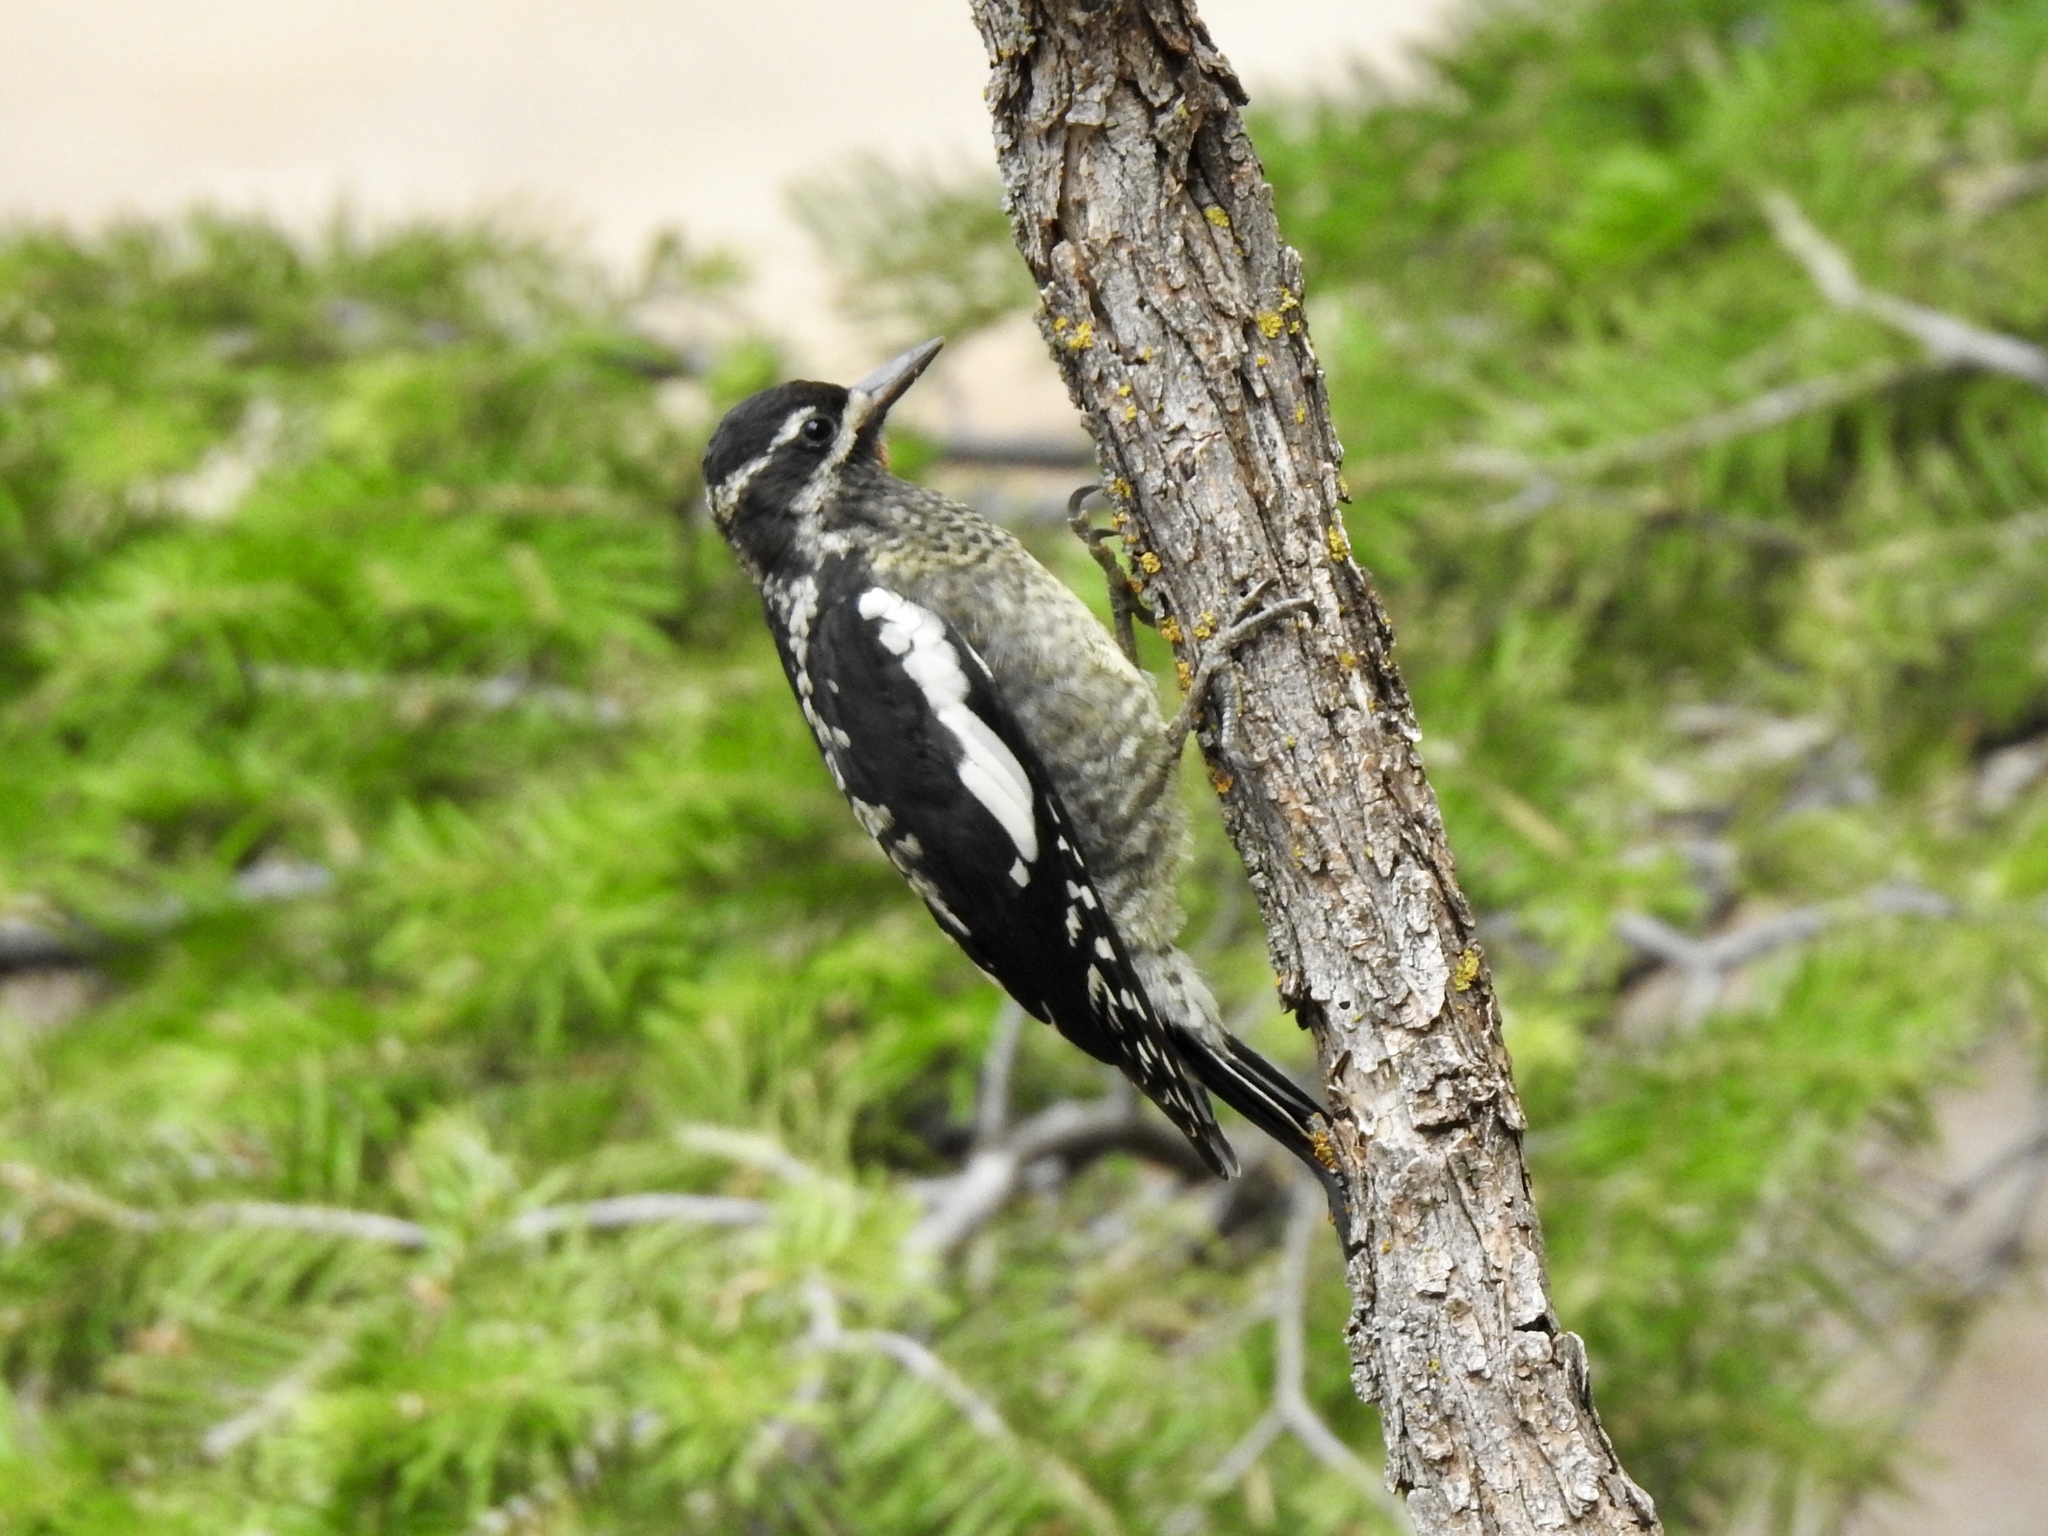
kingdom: Animalia
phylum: Chordata
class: Aves
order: Piciformes
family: Picidae
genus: Sphyrapicus
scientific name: Sphyrapicus nuchalis
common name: Red-naped sapsucker
